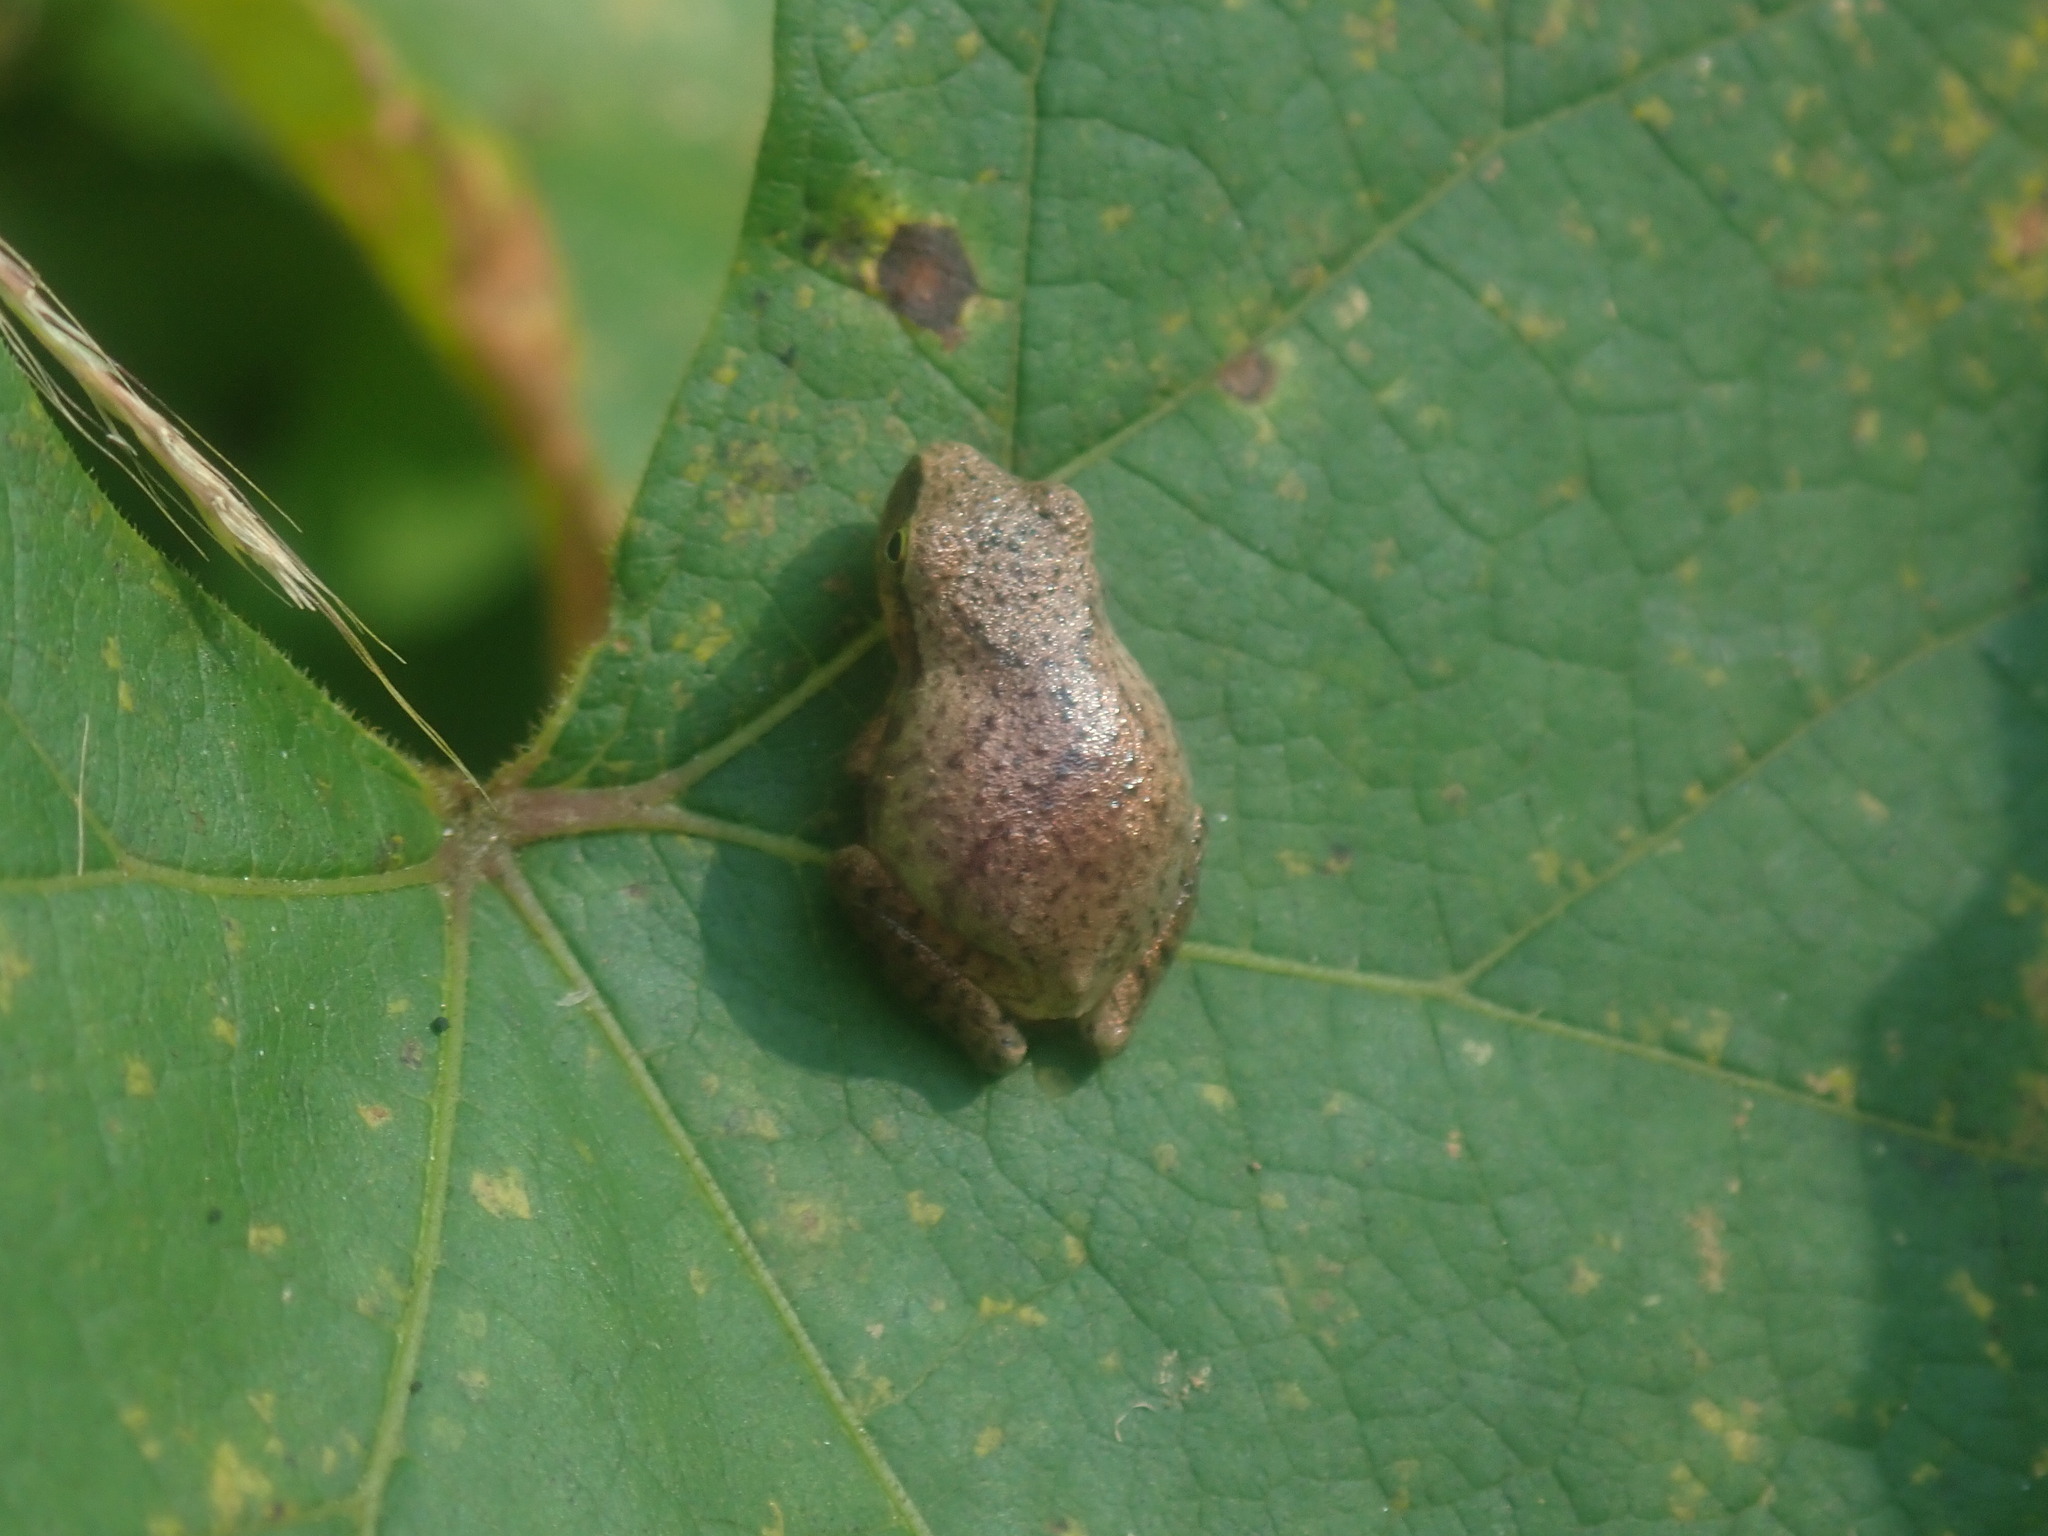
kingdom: Animalia
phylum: Chordata
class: Amphibia
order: Anura
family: Hylidae
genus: Pseudacris
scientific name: Pseudacris crucifer
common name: Spring peeper
